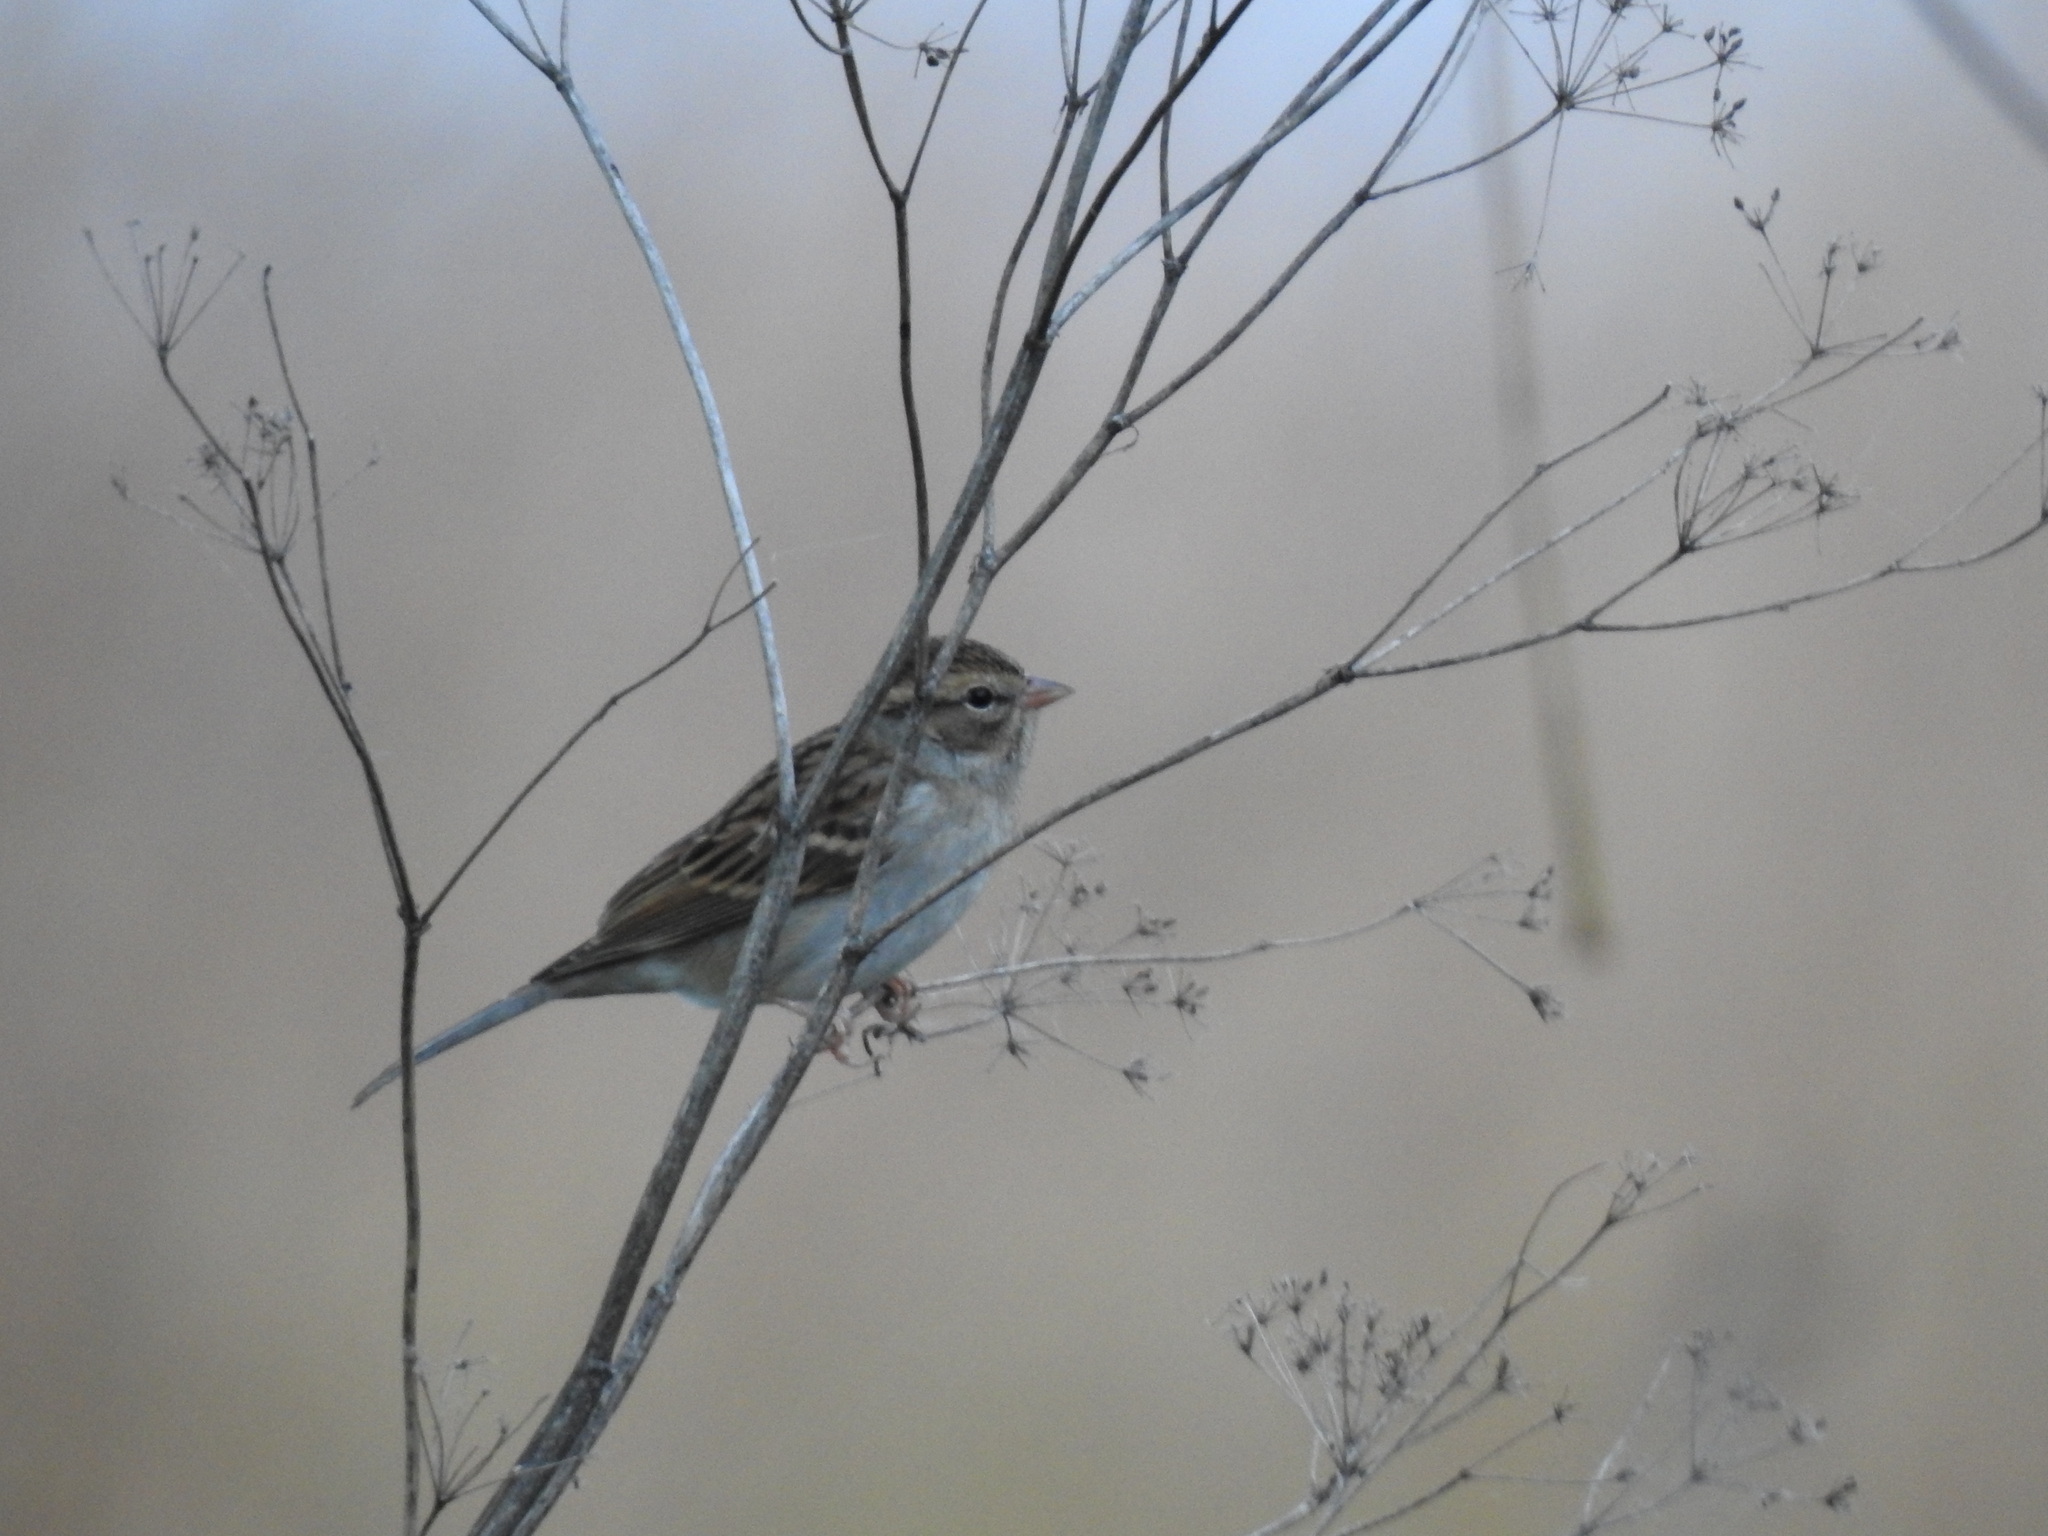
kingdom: Animalia
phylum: Chordata
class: Aves
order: Passeriformes
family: Passerellidae
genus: Spizella
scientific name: Spizella passerina
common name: Chipping sparrow
